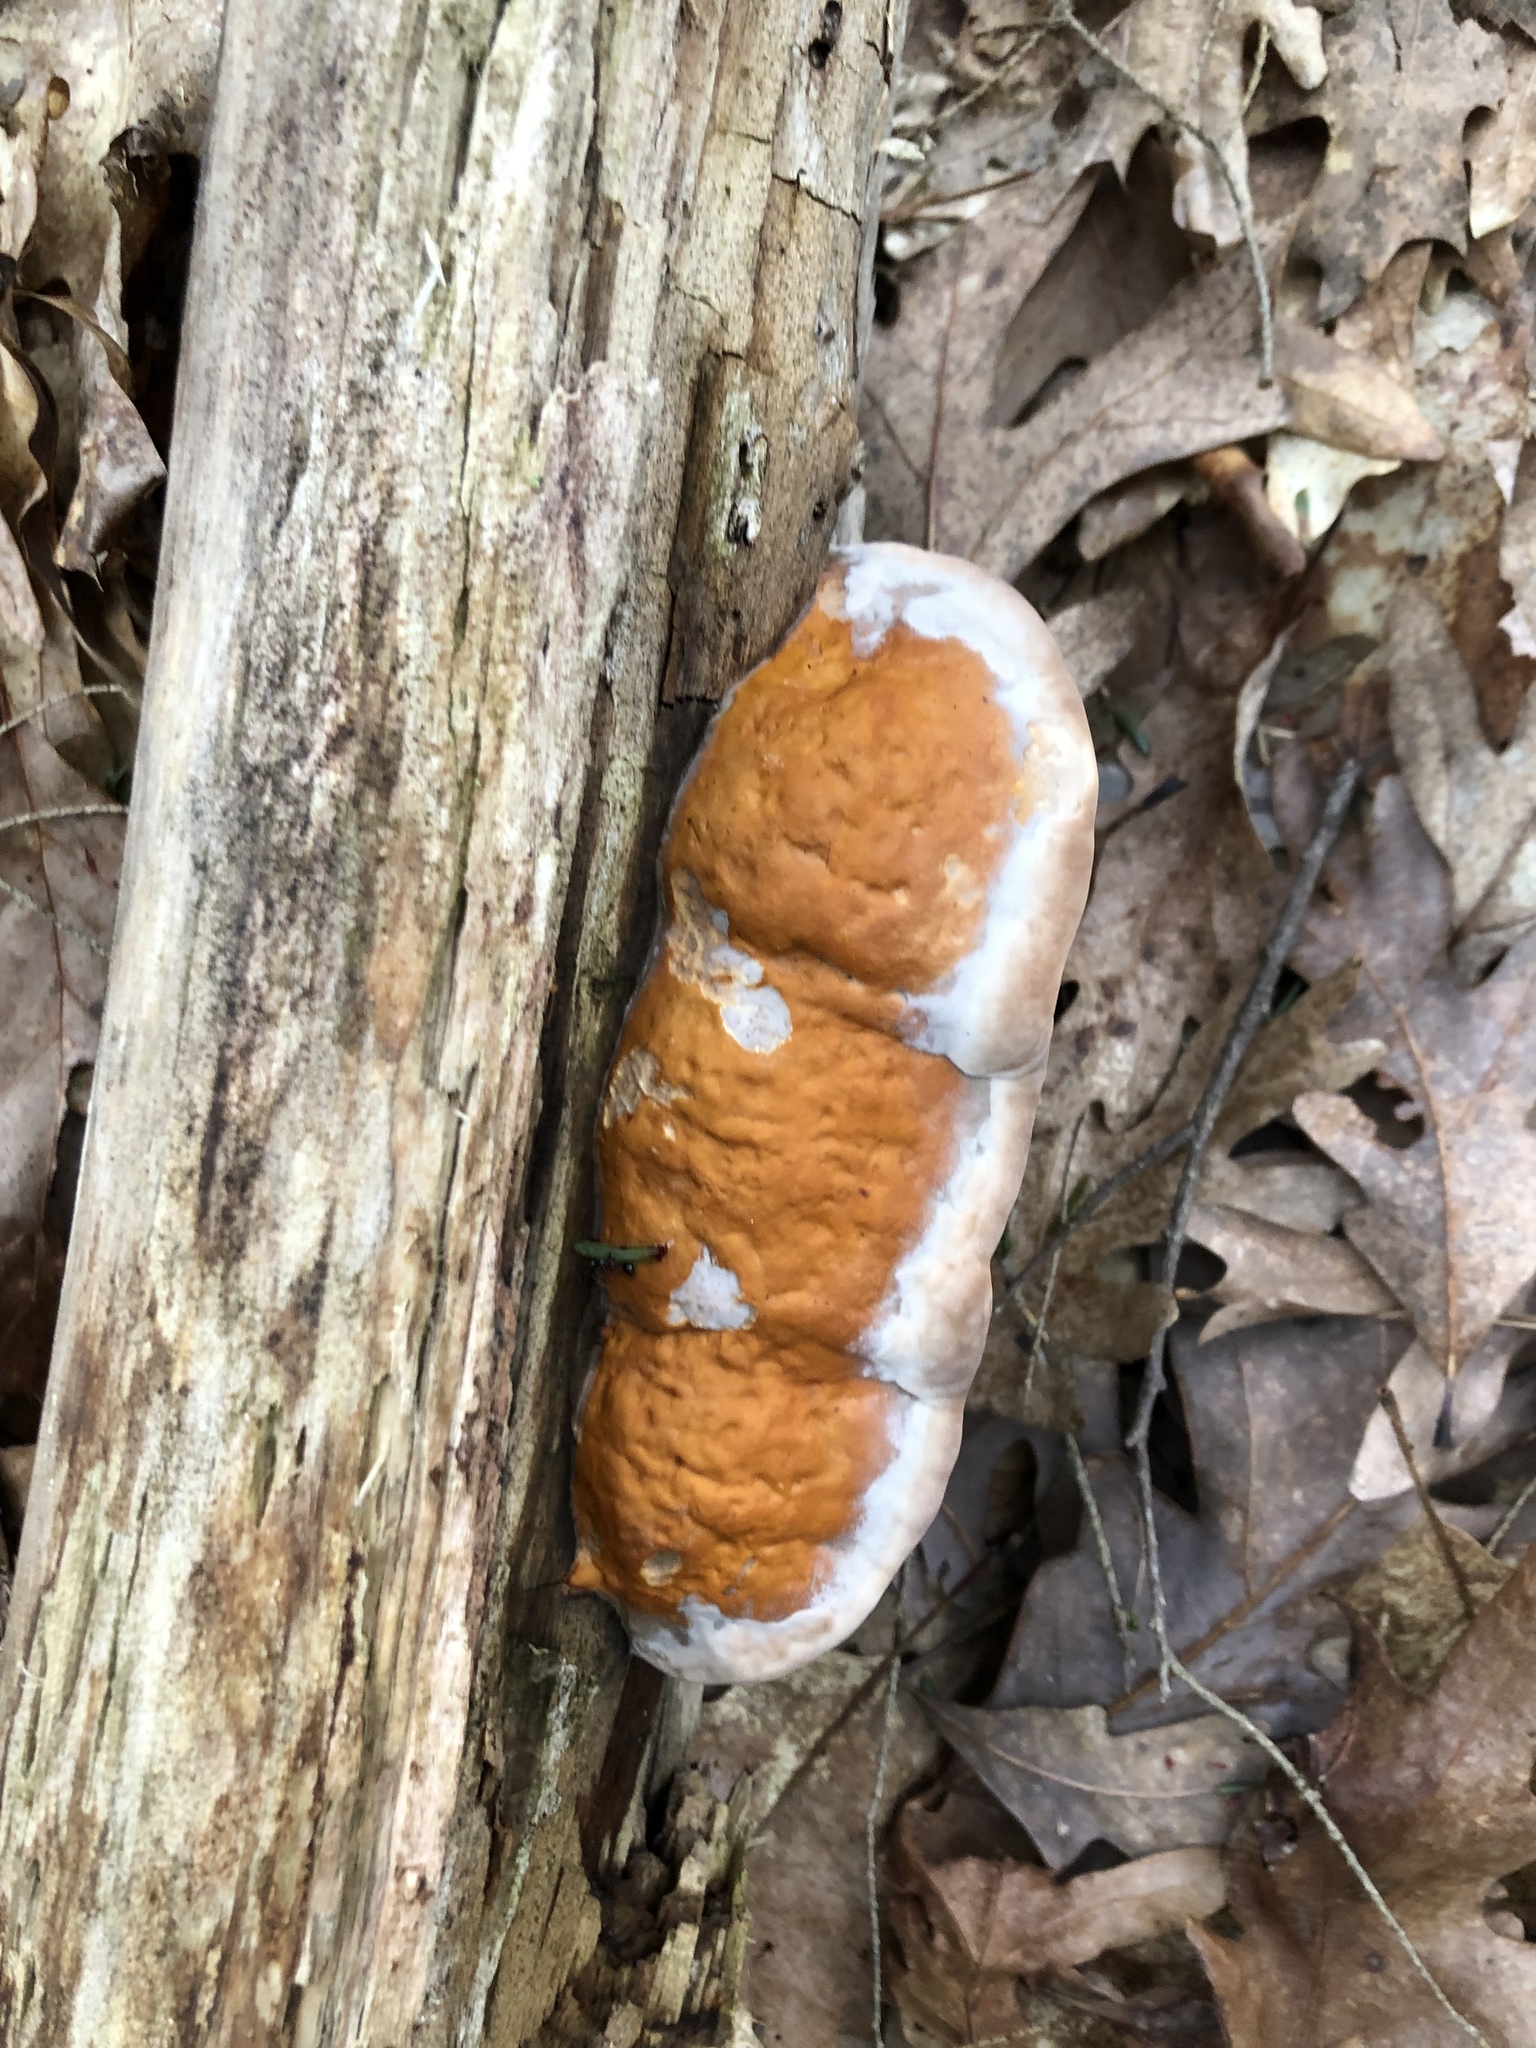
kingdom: Fungi
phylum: Basidiomycota
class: Agaricomycetes
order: Polyporales
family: Fomitopsidaceae
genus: Fomitopsis
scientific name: Fomitopsis mounceae
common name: Northern red belt
